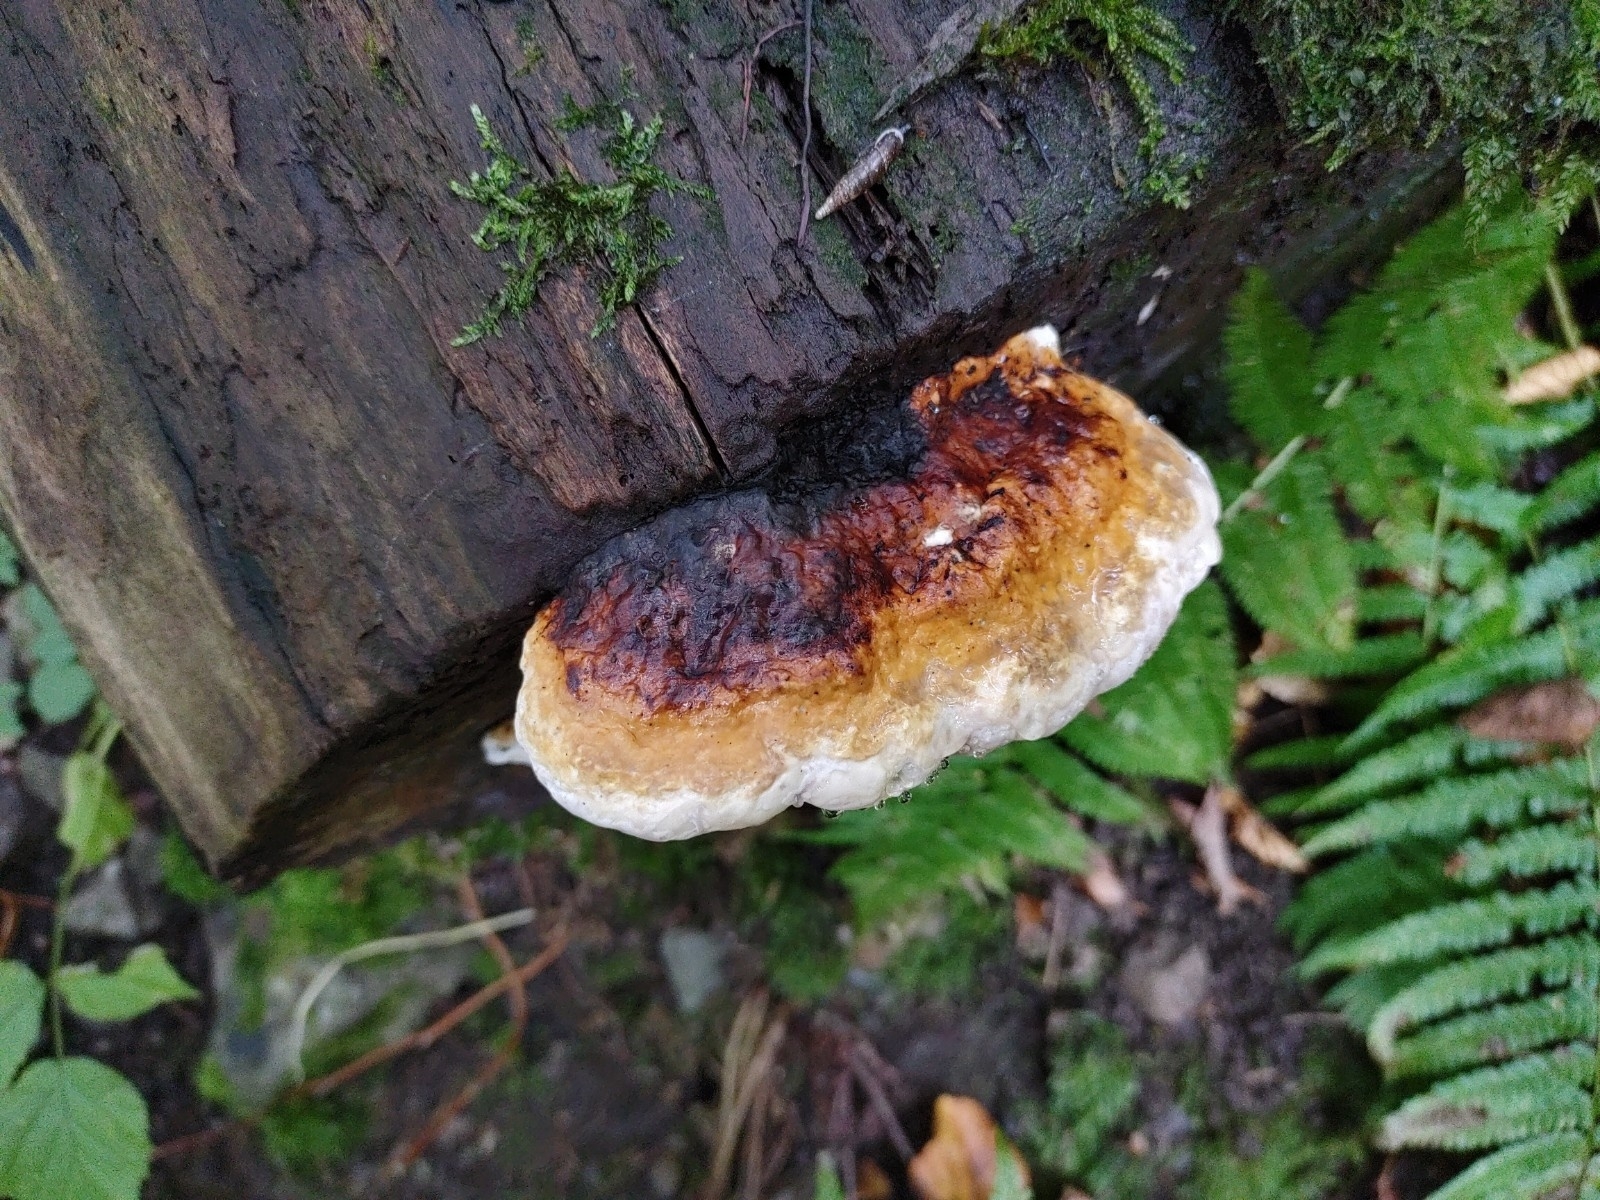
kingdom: Fungi
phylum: Basidiomycota
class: Agaricomycetes
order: Polyporales
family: Fomitopsidaceae
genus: Fomitopsis
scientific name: Fomitopsis pinicola
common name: Red-belted bracket
